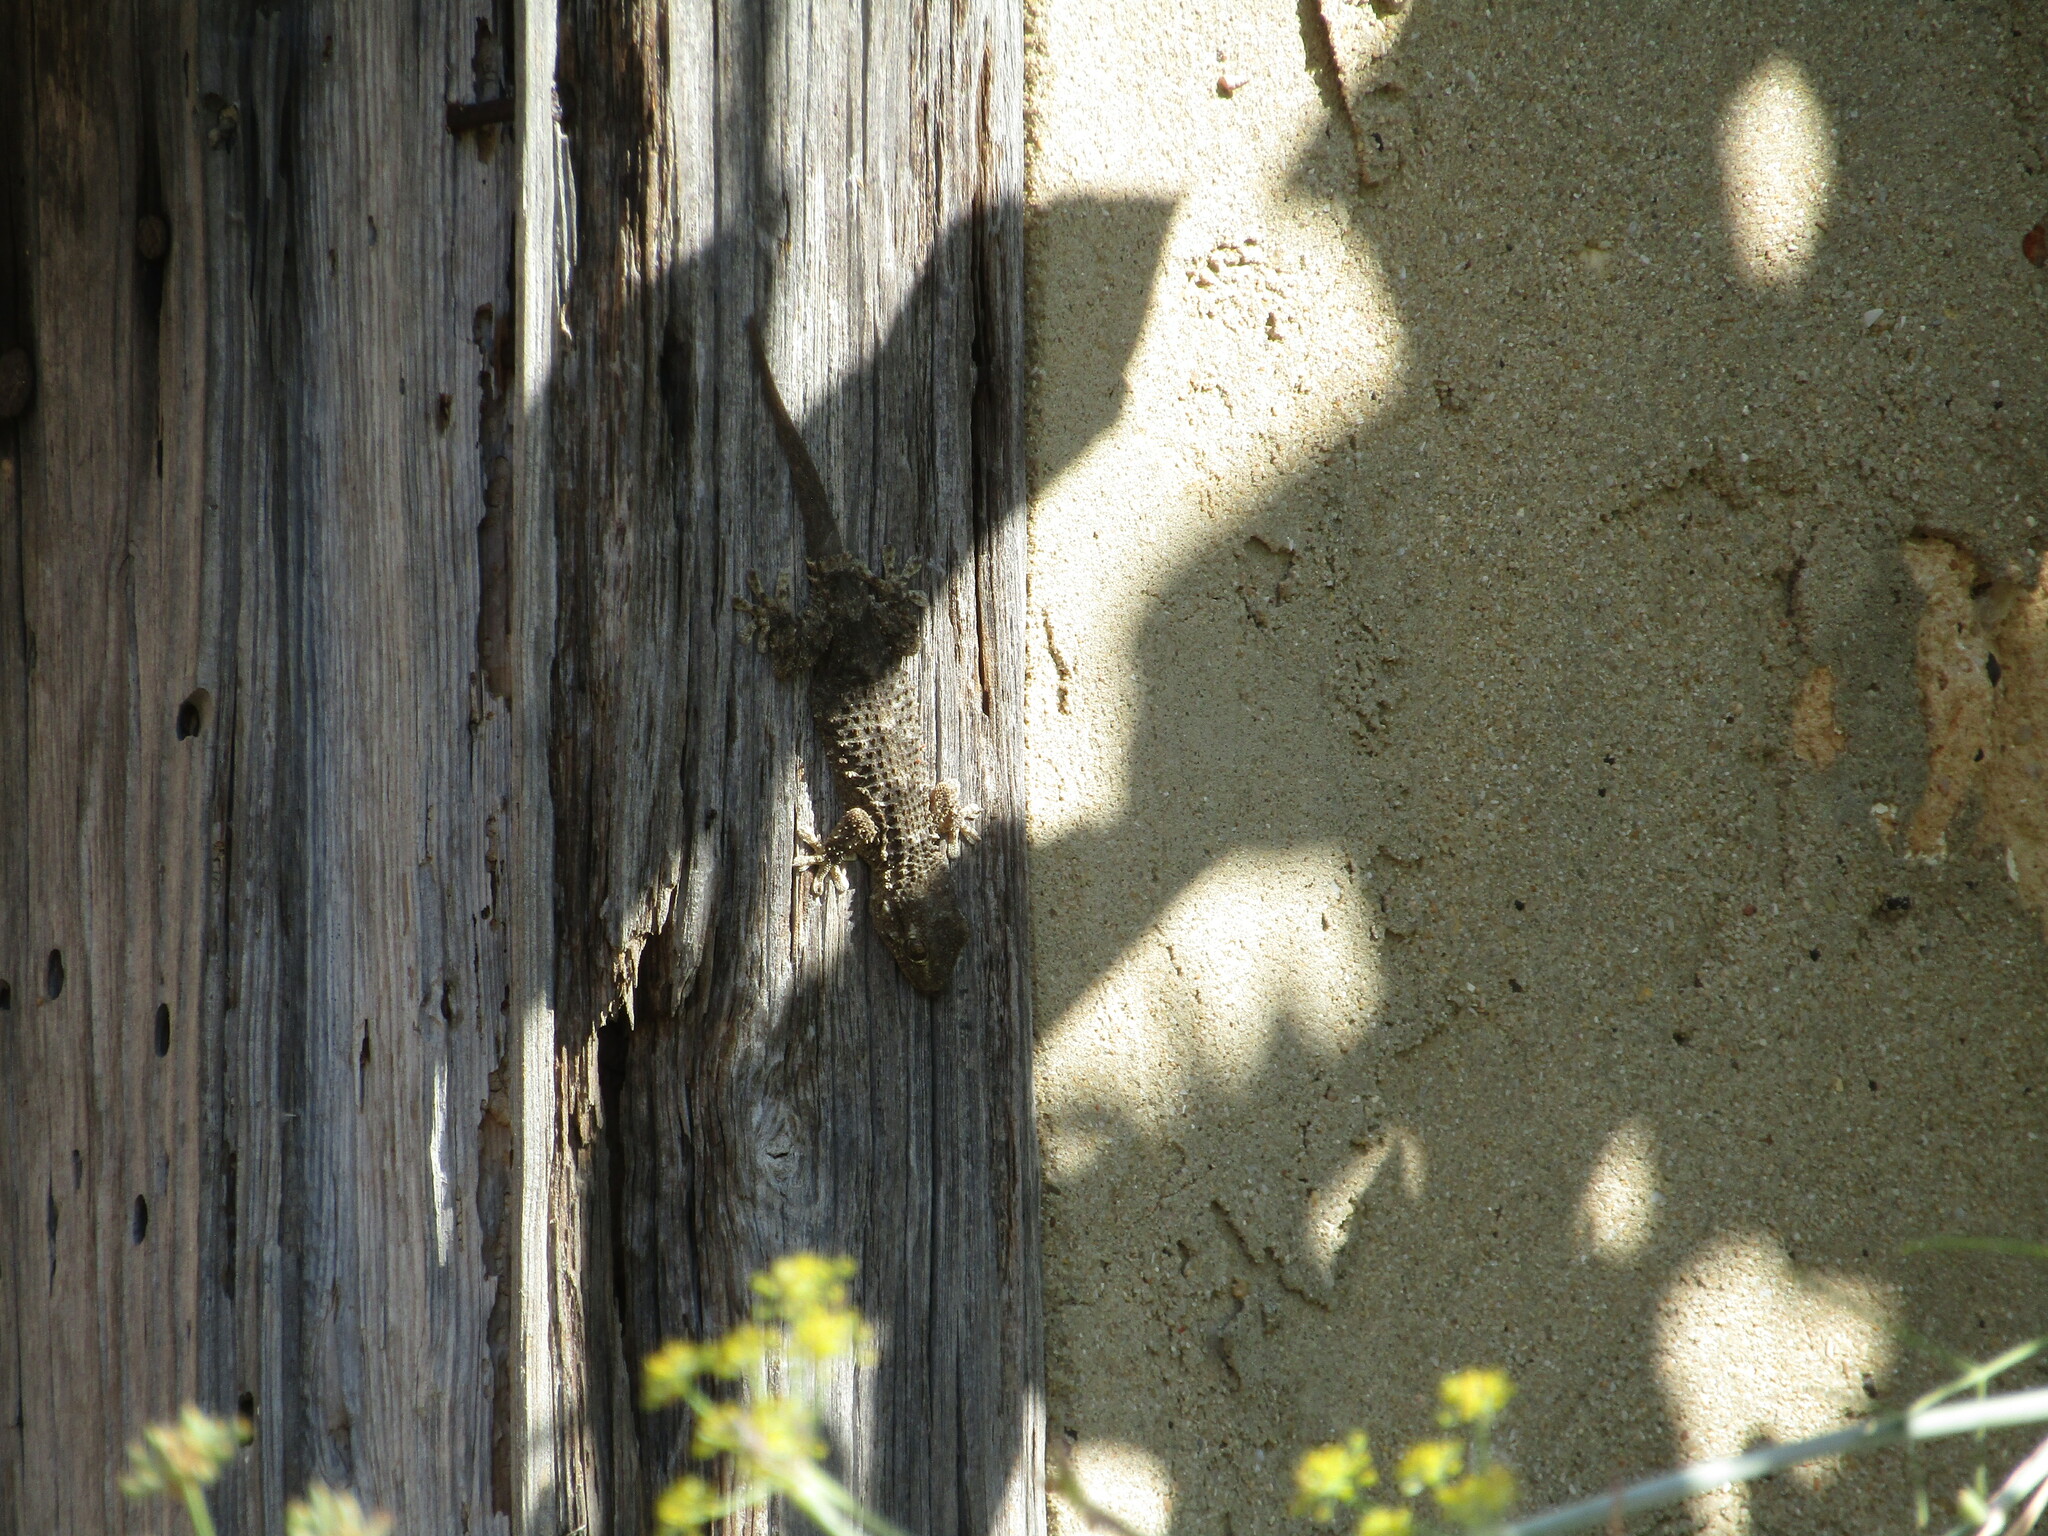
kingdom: Animalia
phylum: Chordata
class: Squamata
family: Phyllodactylidae
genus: Tarentola
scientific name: Tarentola mauritanica
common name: Moorish gecko
